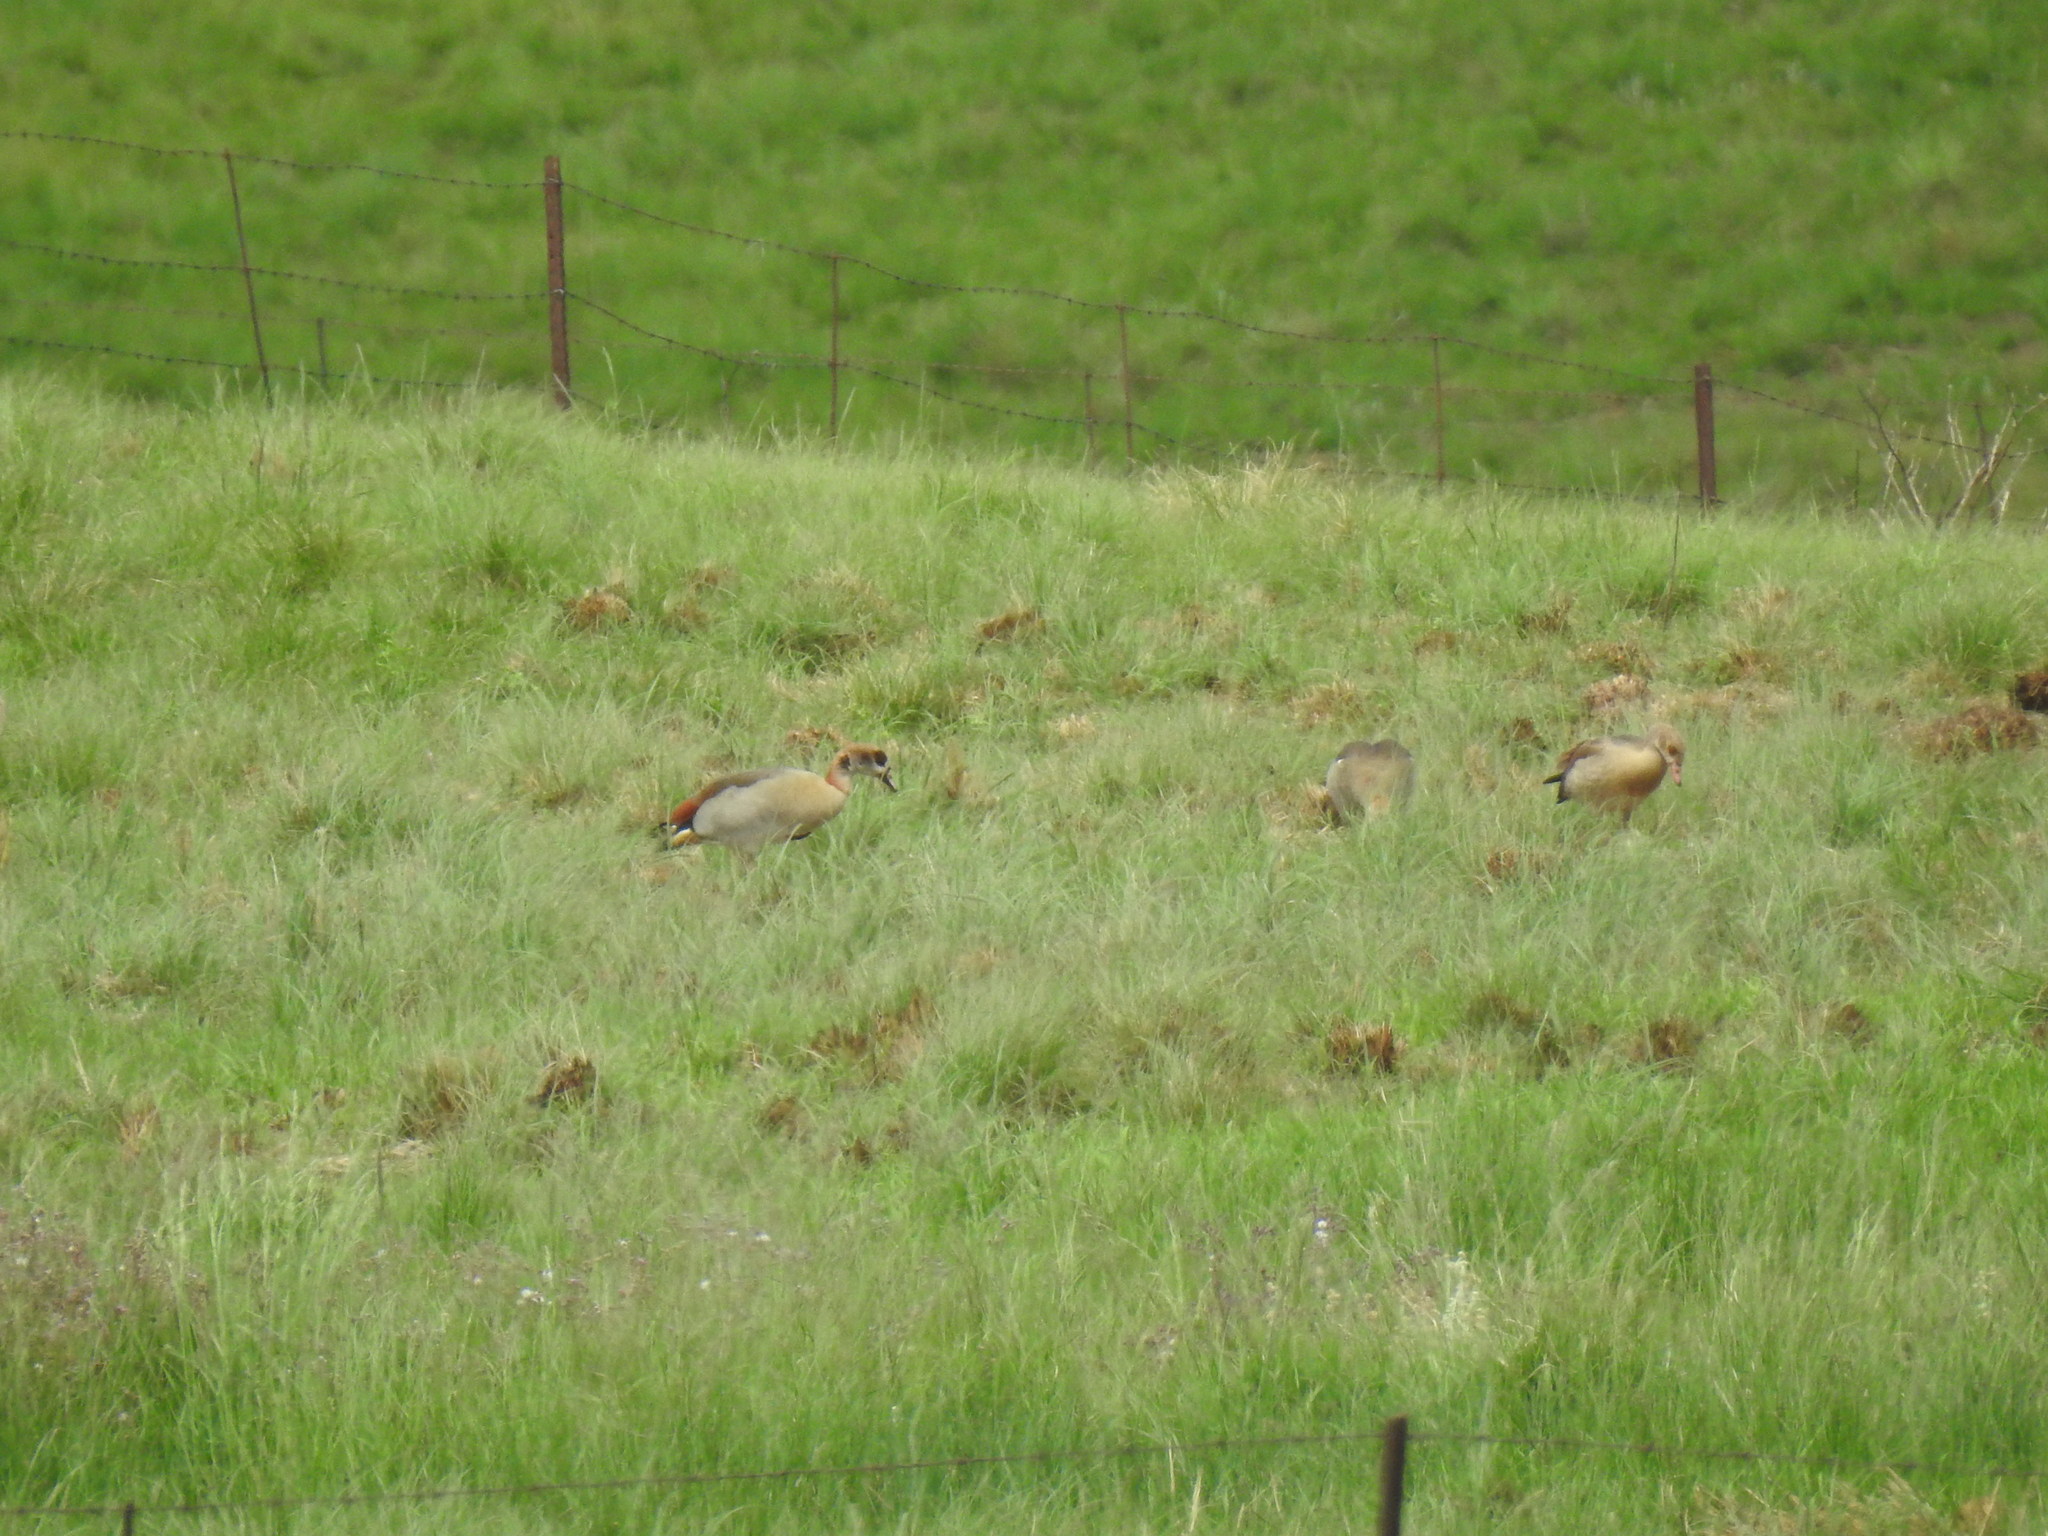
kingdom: Animalia
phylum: Chordata
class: Aves
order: Anseriformes
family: Anatidae
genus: Alopochen
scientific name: Alopochen aegyptiaca
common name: Egyptian goose
